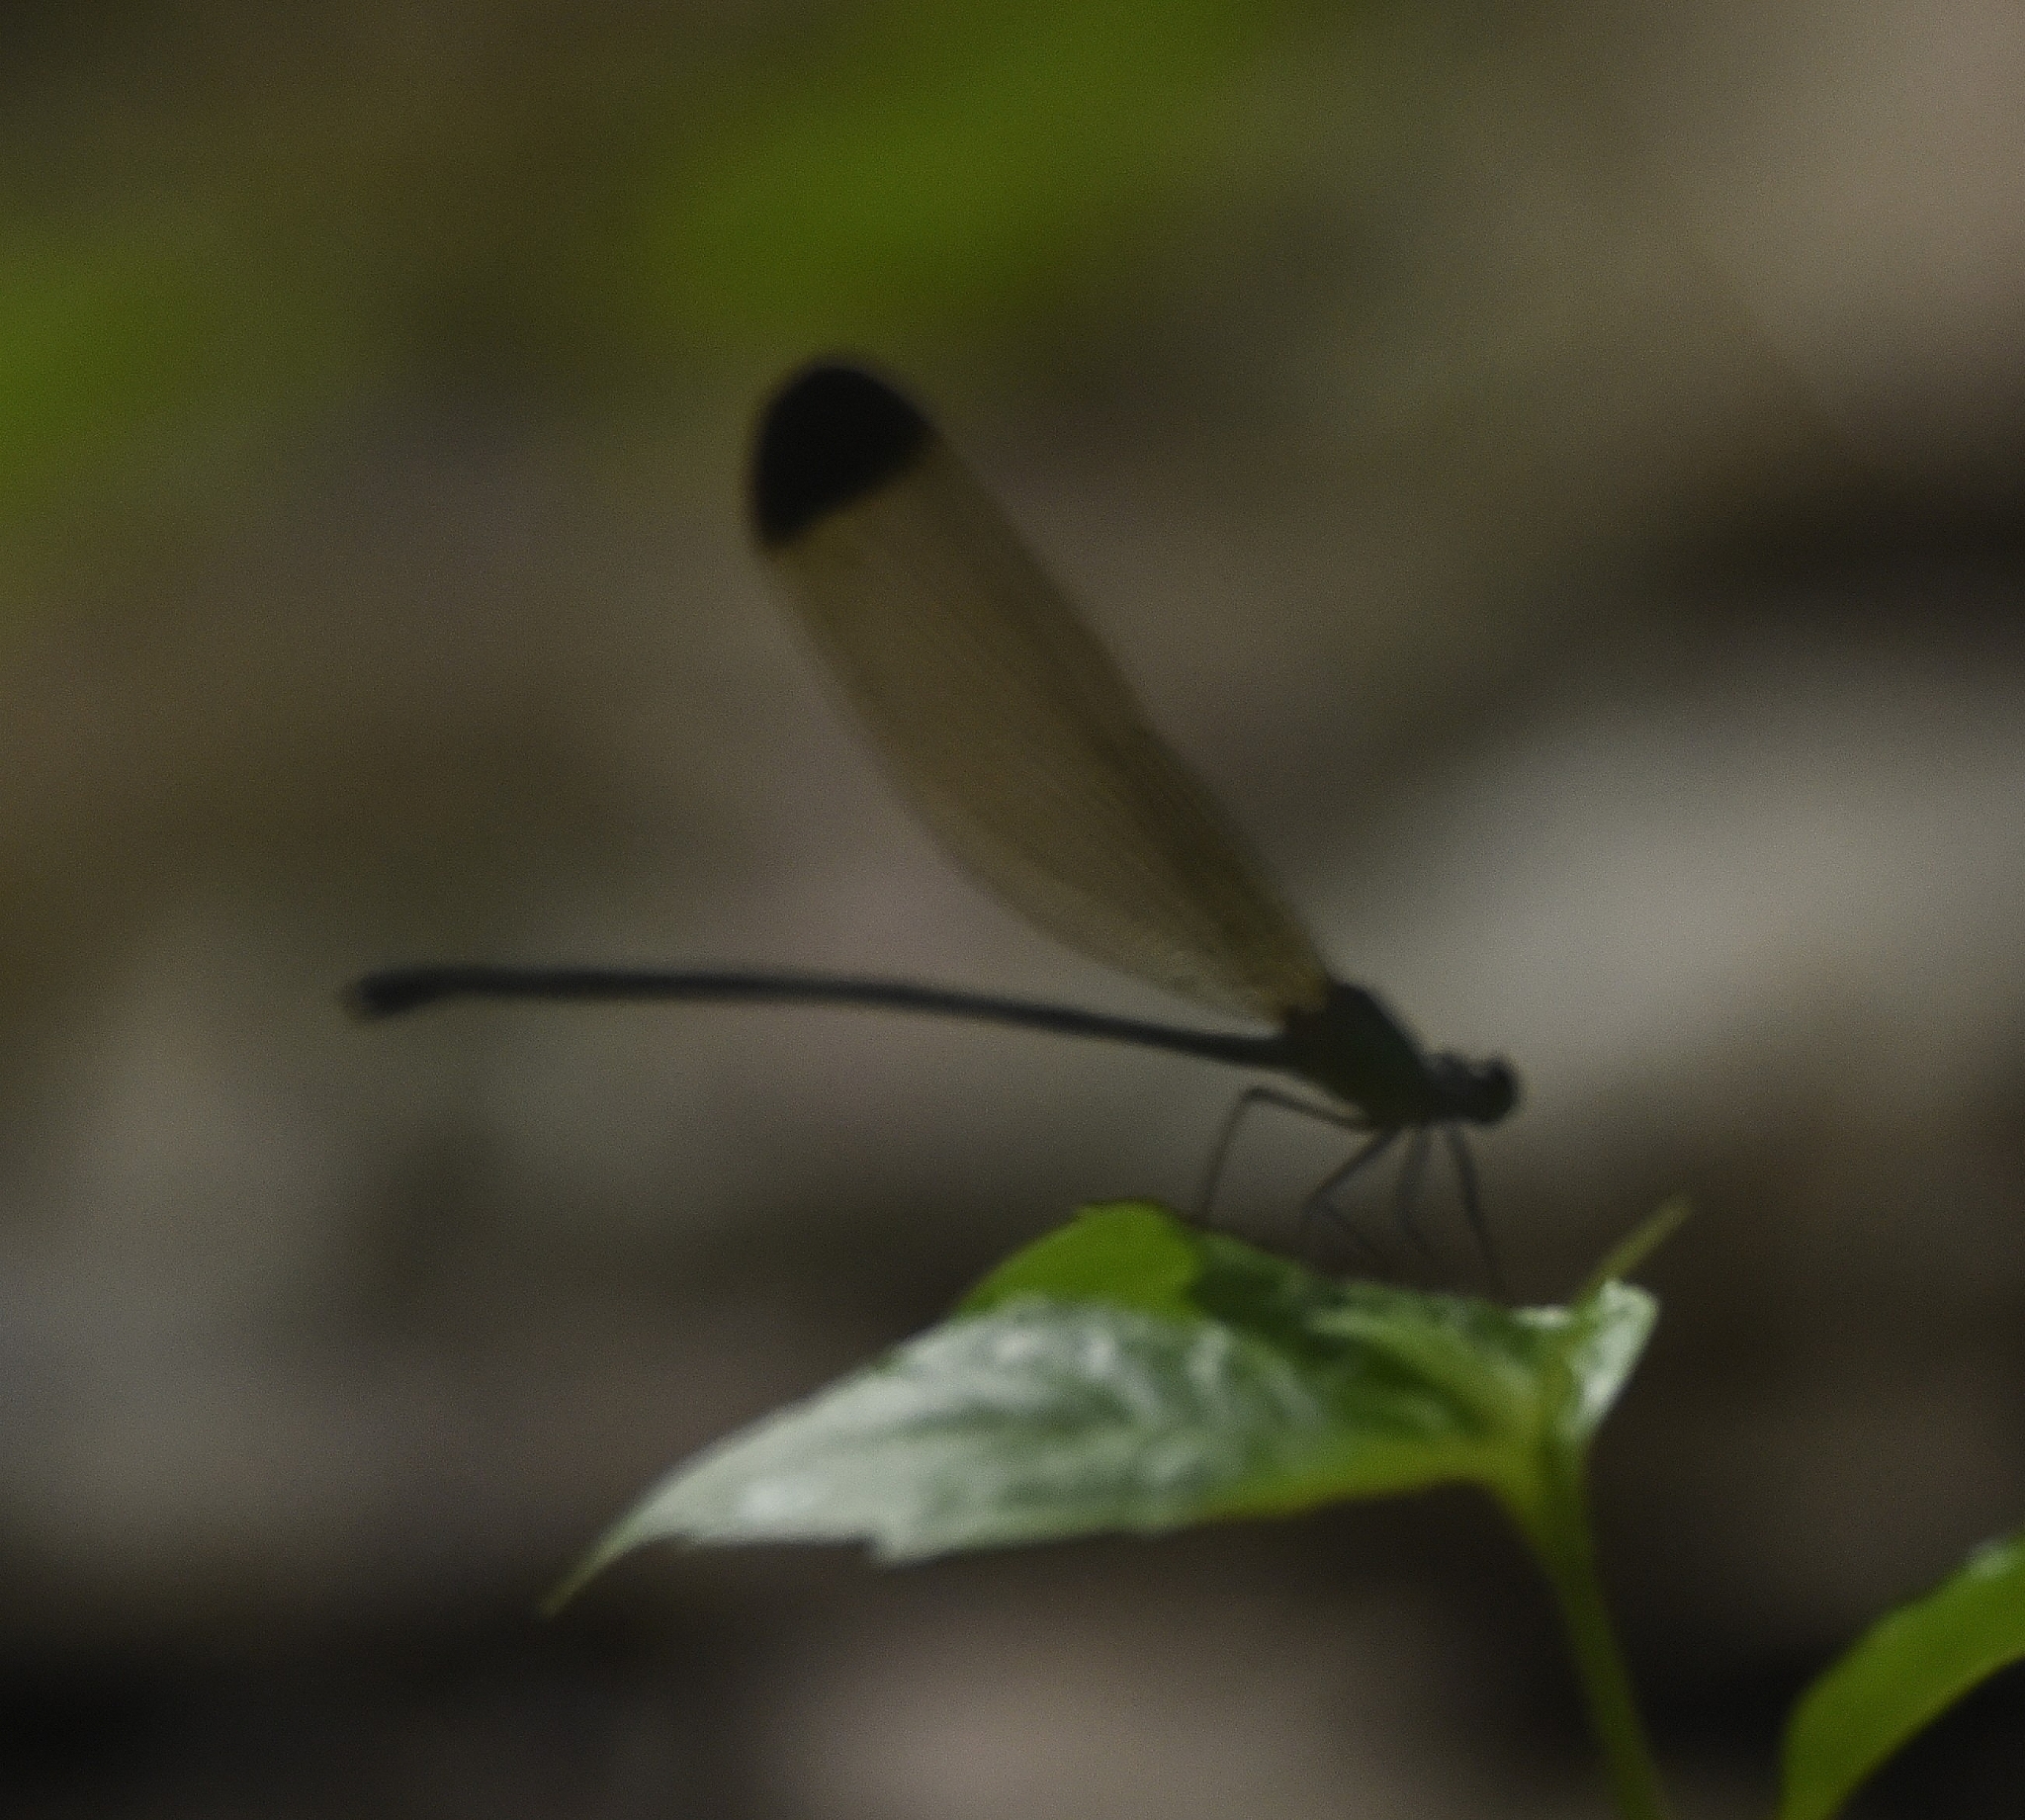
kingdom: Animalia
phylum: Arthropoda
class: Insecta
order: Odonata
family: Calopterygidae
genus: Vestalis
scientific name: Vestalis apicalis
